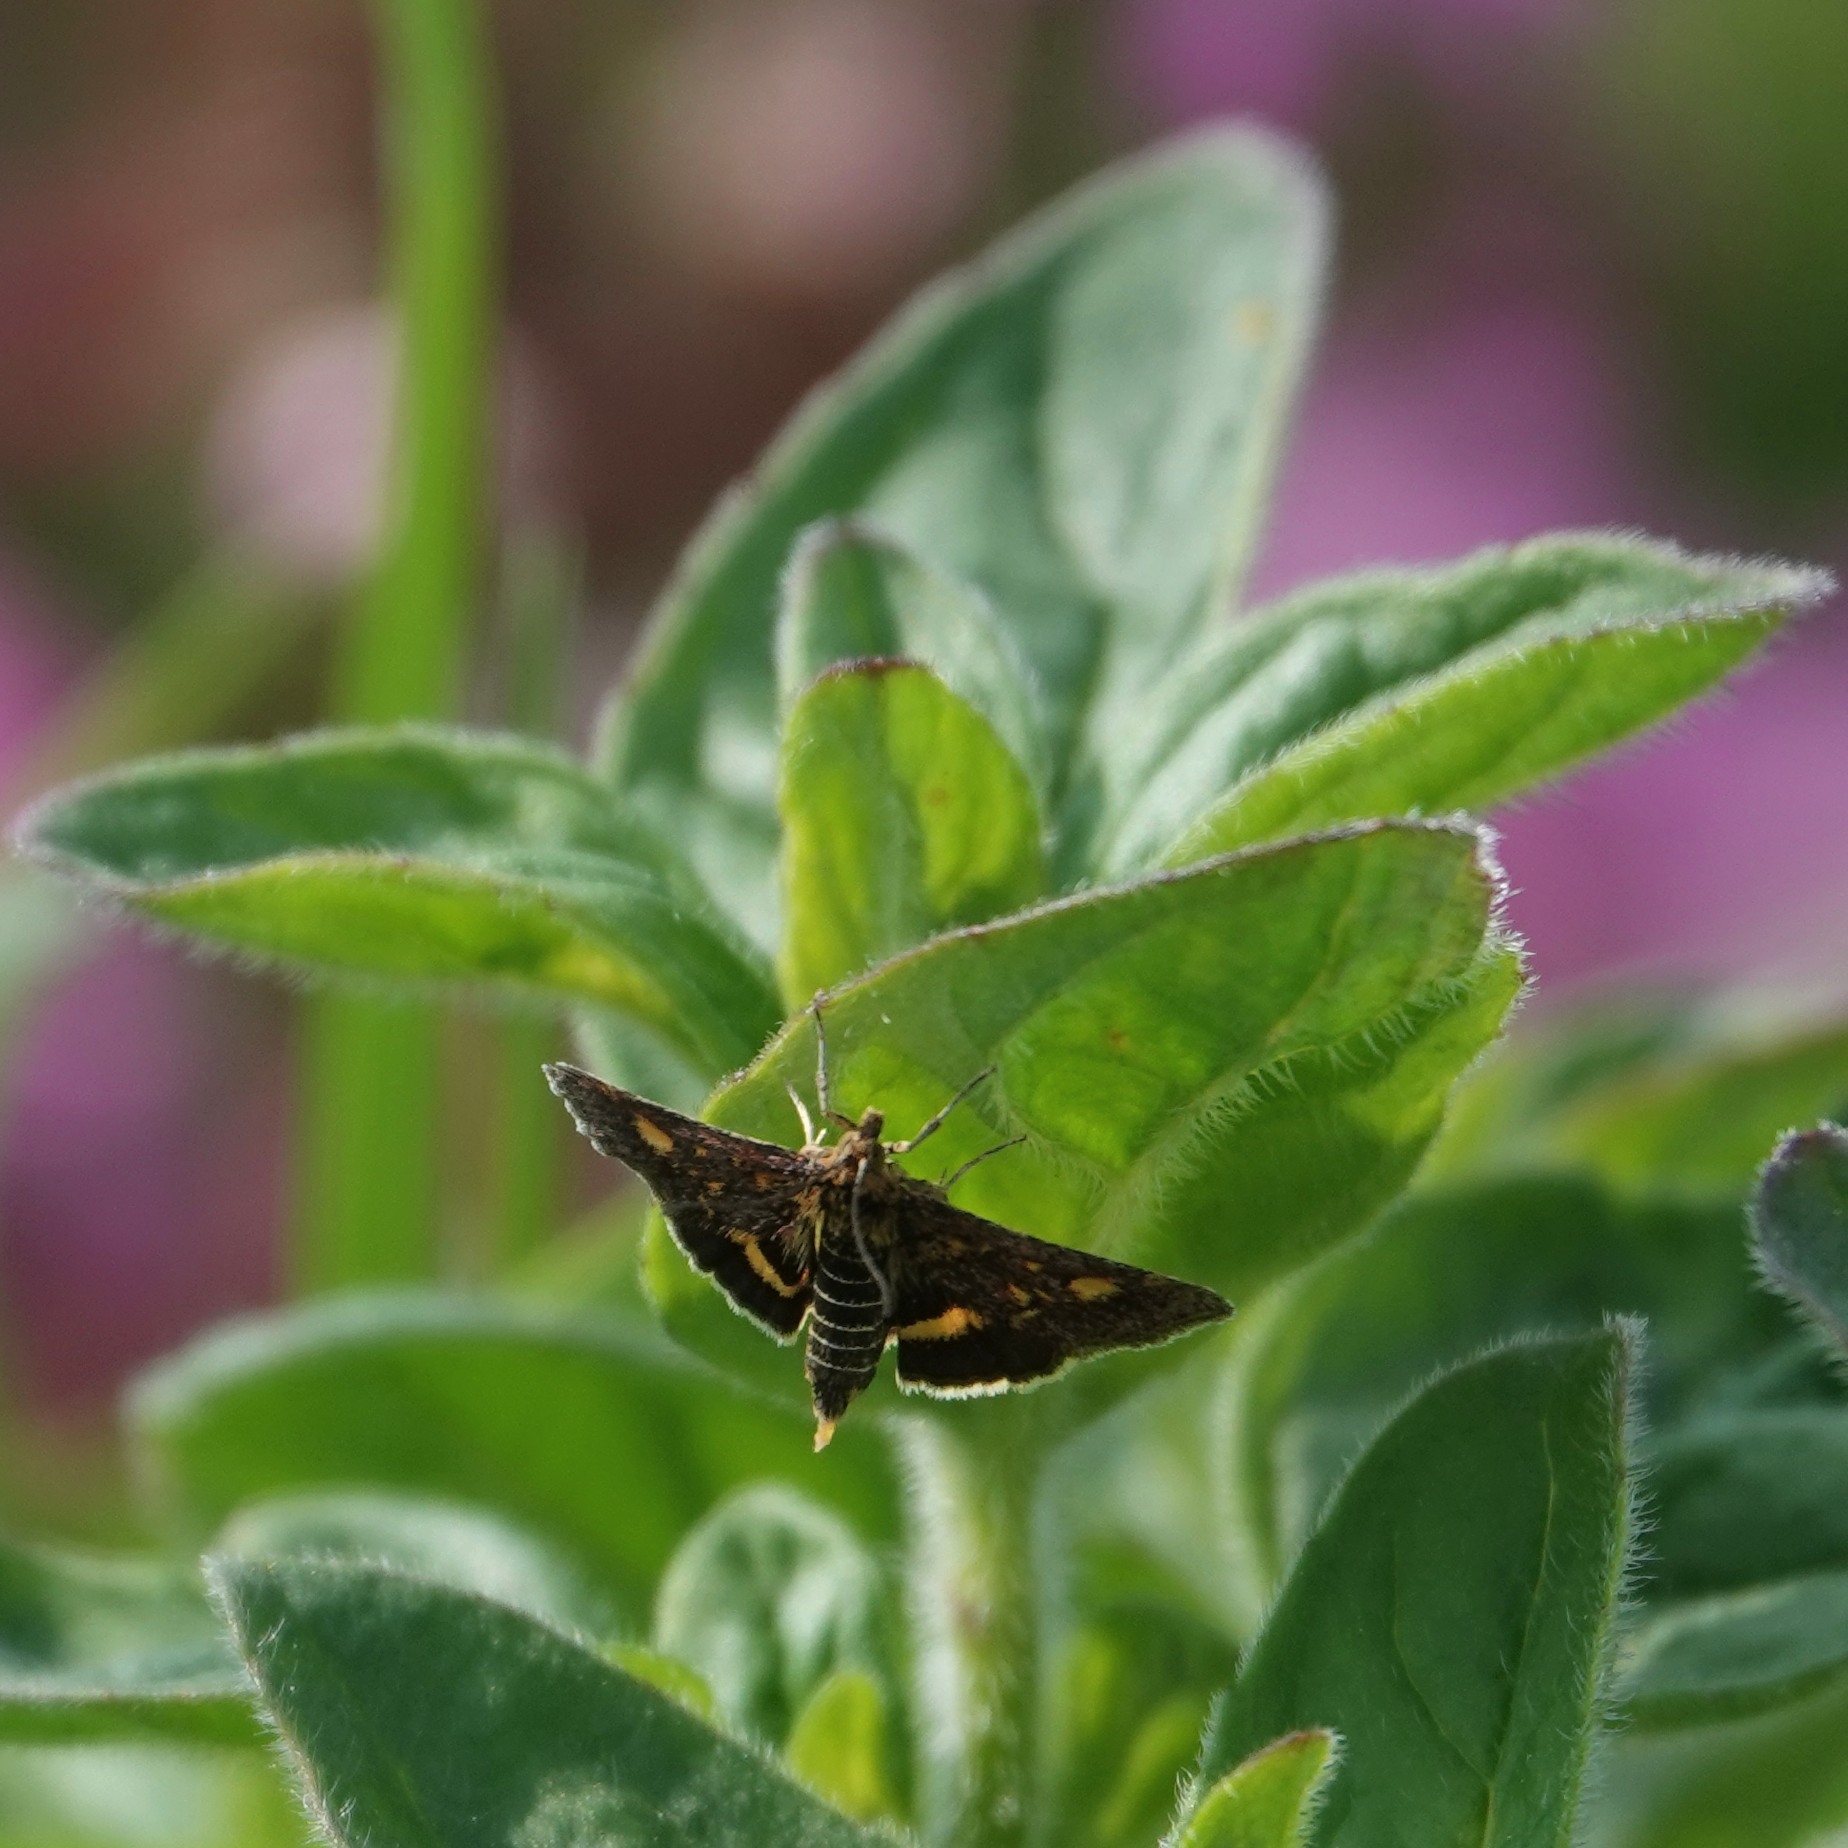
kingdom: Animalia
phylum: Arthropoda
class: Insecta
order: Lepidoptera
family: Crambidae
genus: Pyrausta
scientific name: Pyrausta aurata
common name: Small purple & gold
